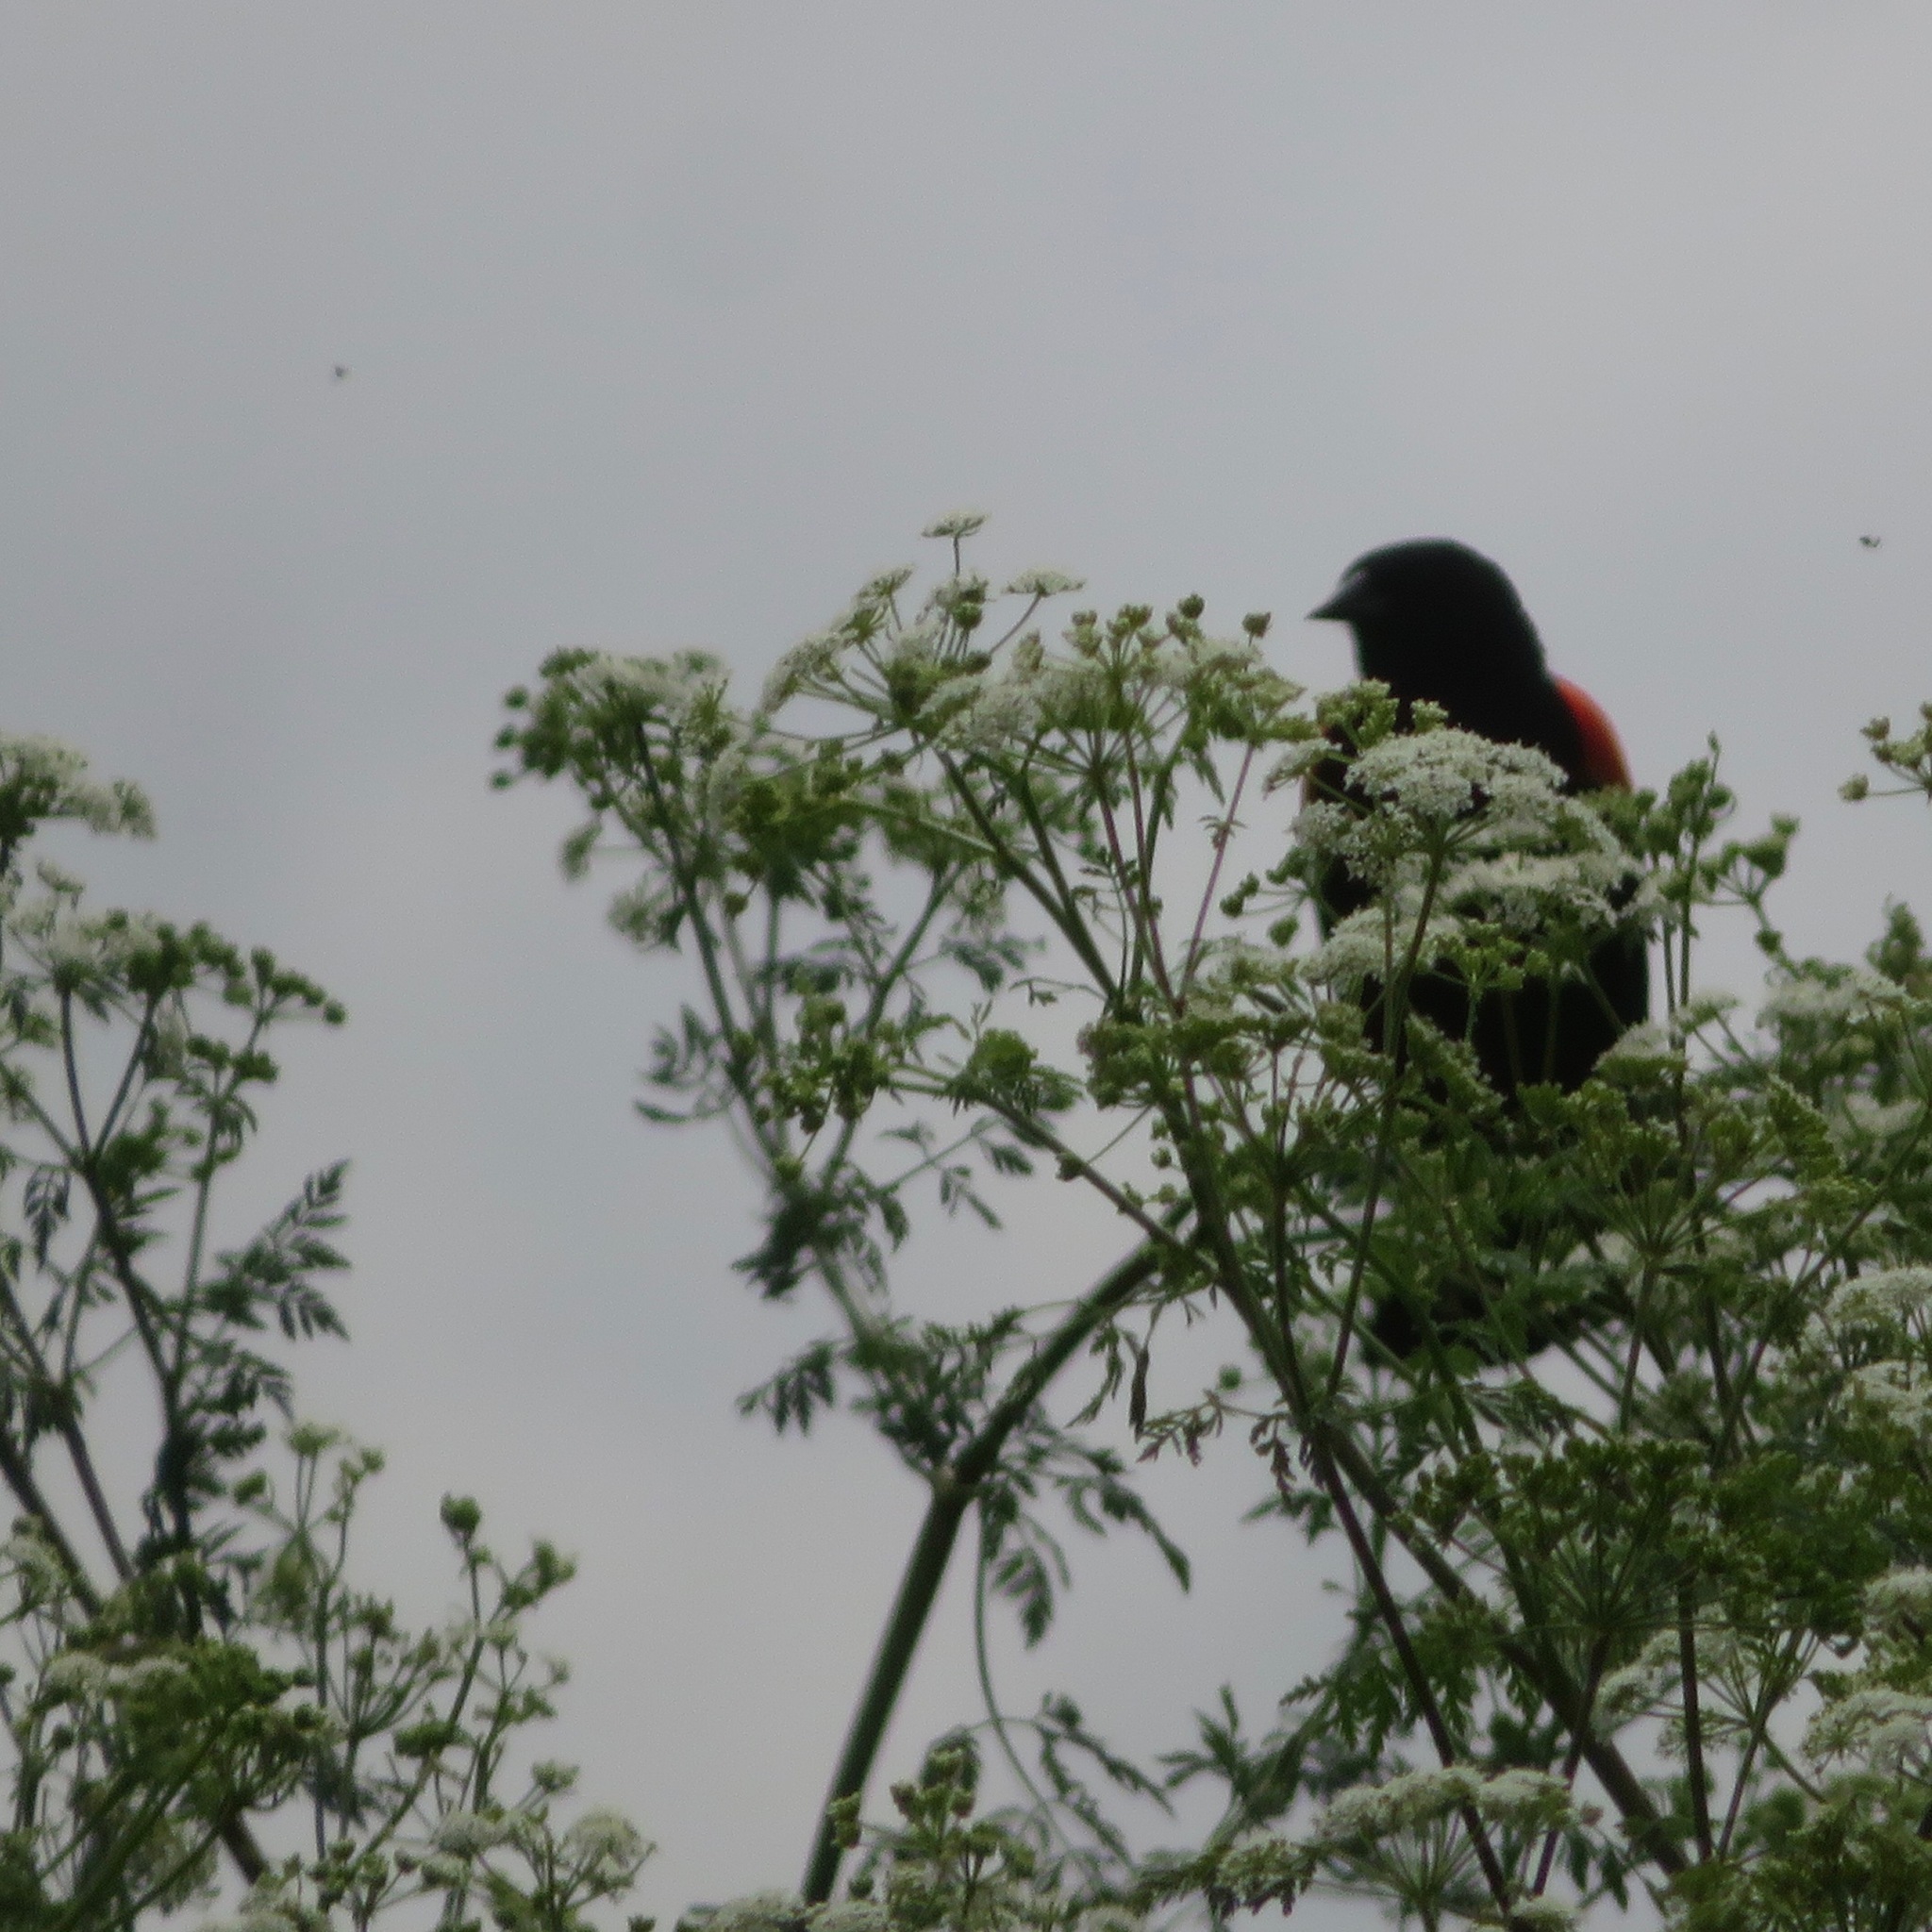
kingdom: Animalia
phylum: Chordata
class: Aves
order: Passeriformes
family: Icteridae
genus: Agelaius
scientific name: Agelaius phoeniceus
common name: Red-winged blackbird
